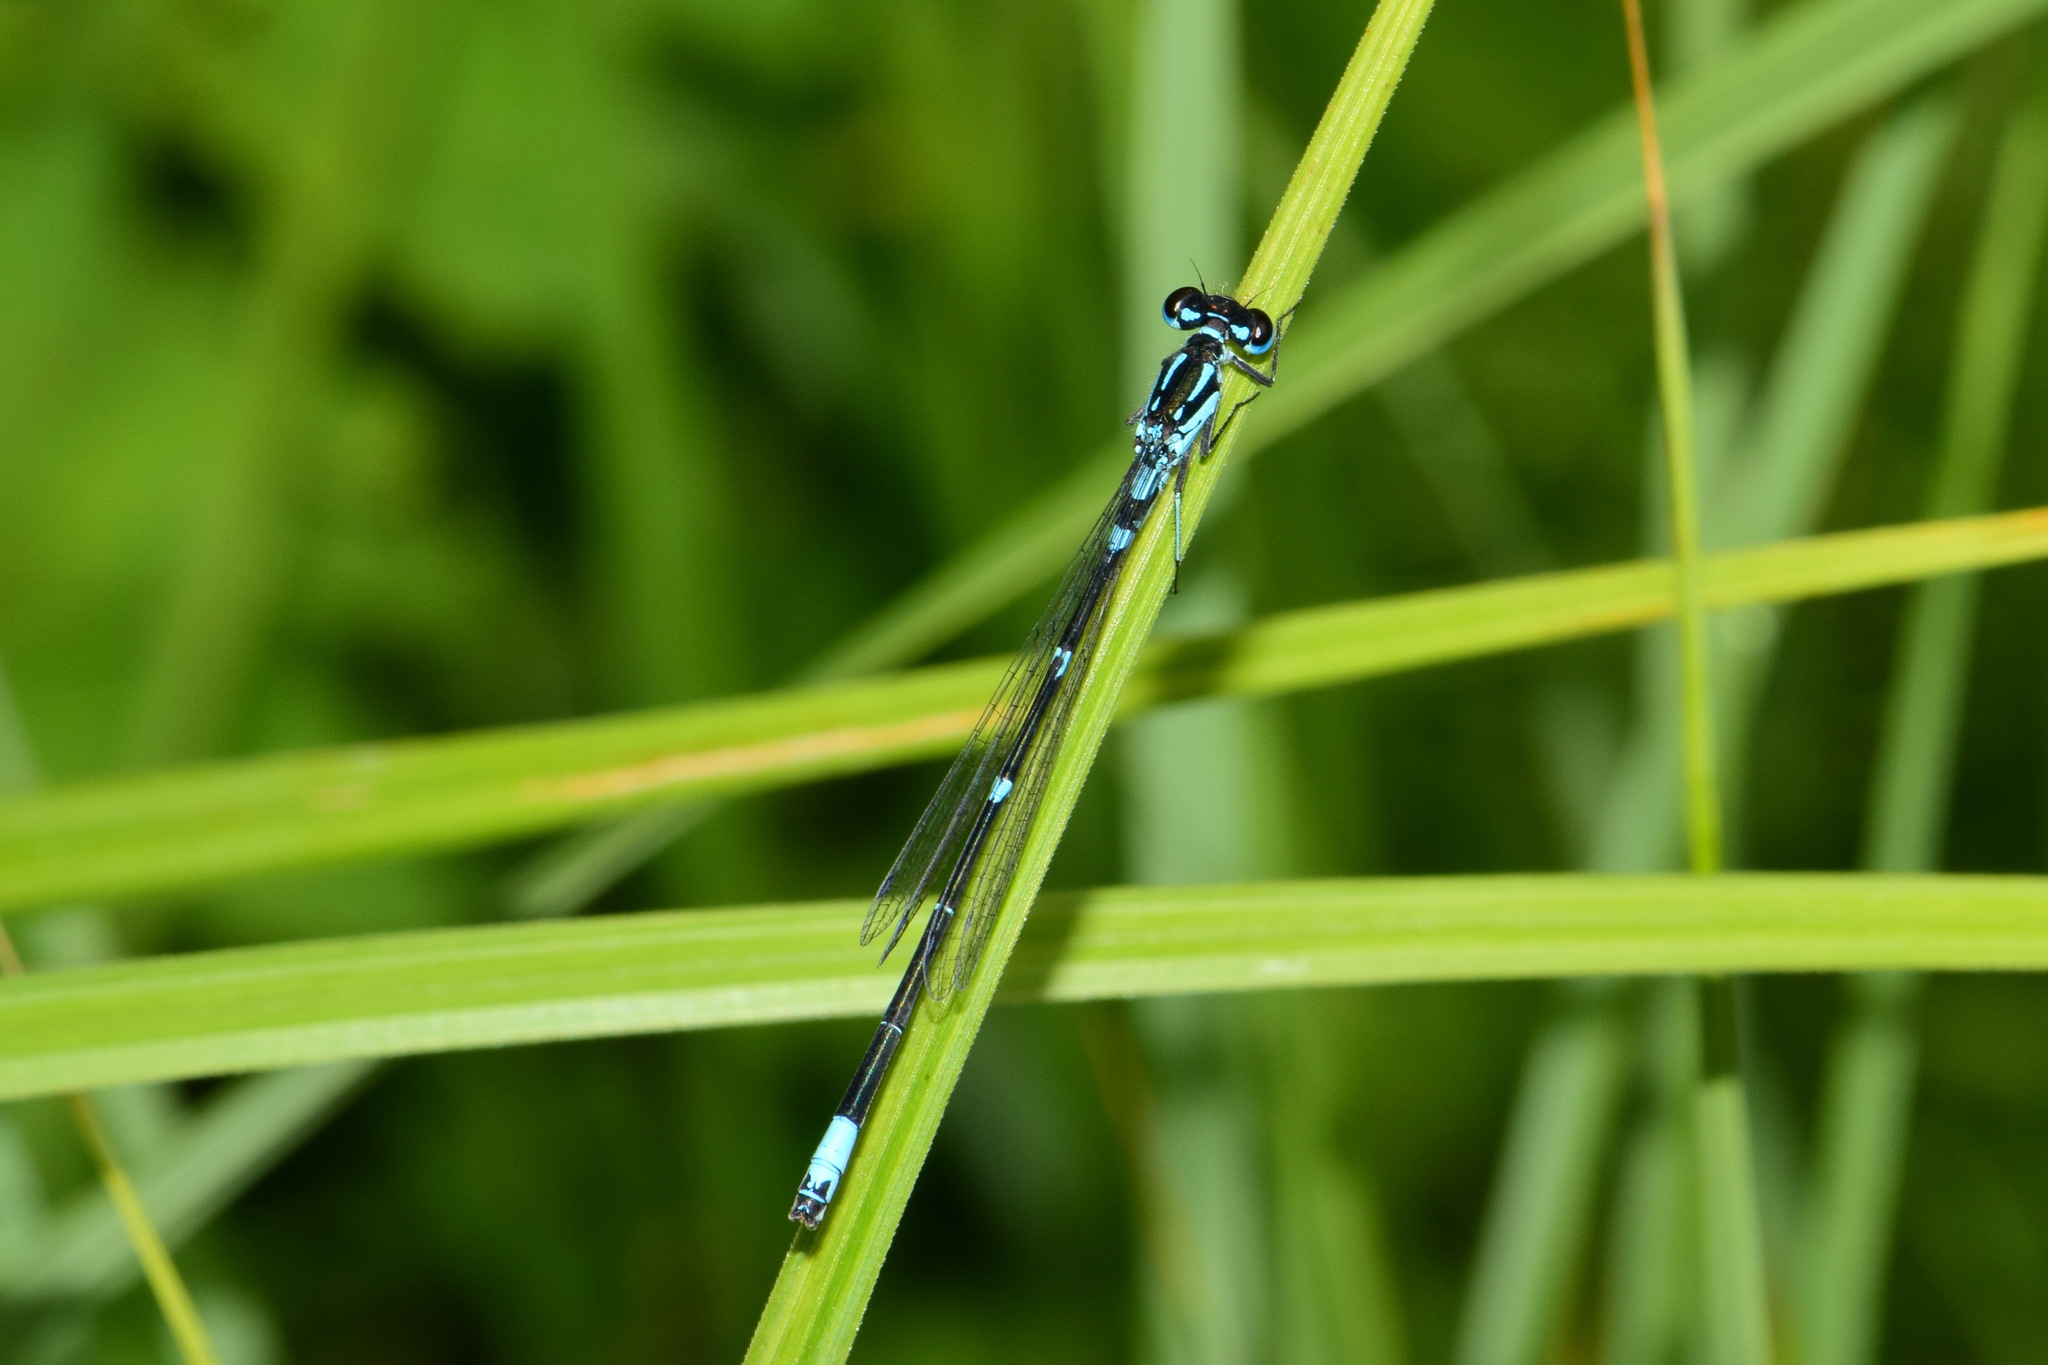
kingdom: Animalia
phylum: Arthropoda
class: Insecta
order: Odonata
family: Coenagrionidae
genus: Coenagrion
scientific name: Coenagrion pulchellum
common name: Variable bluet
